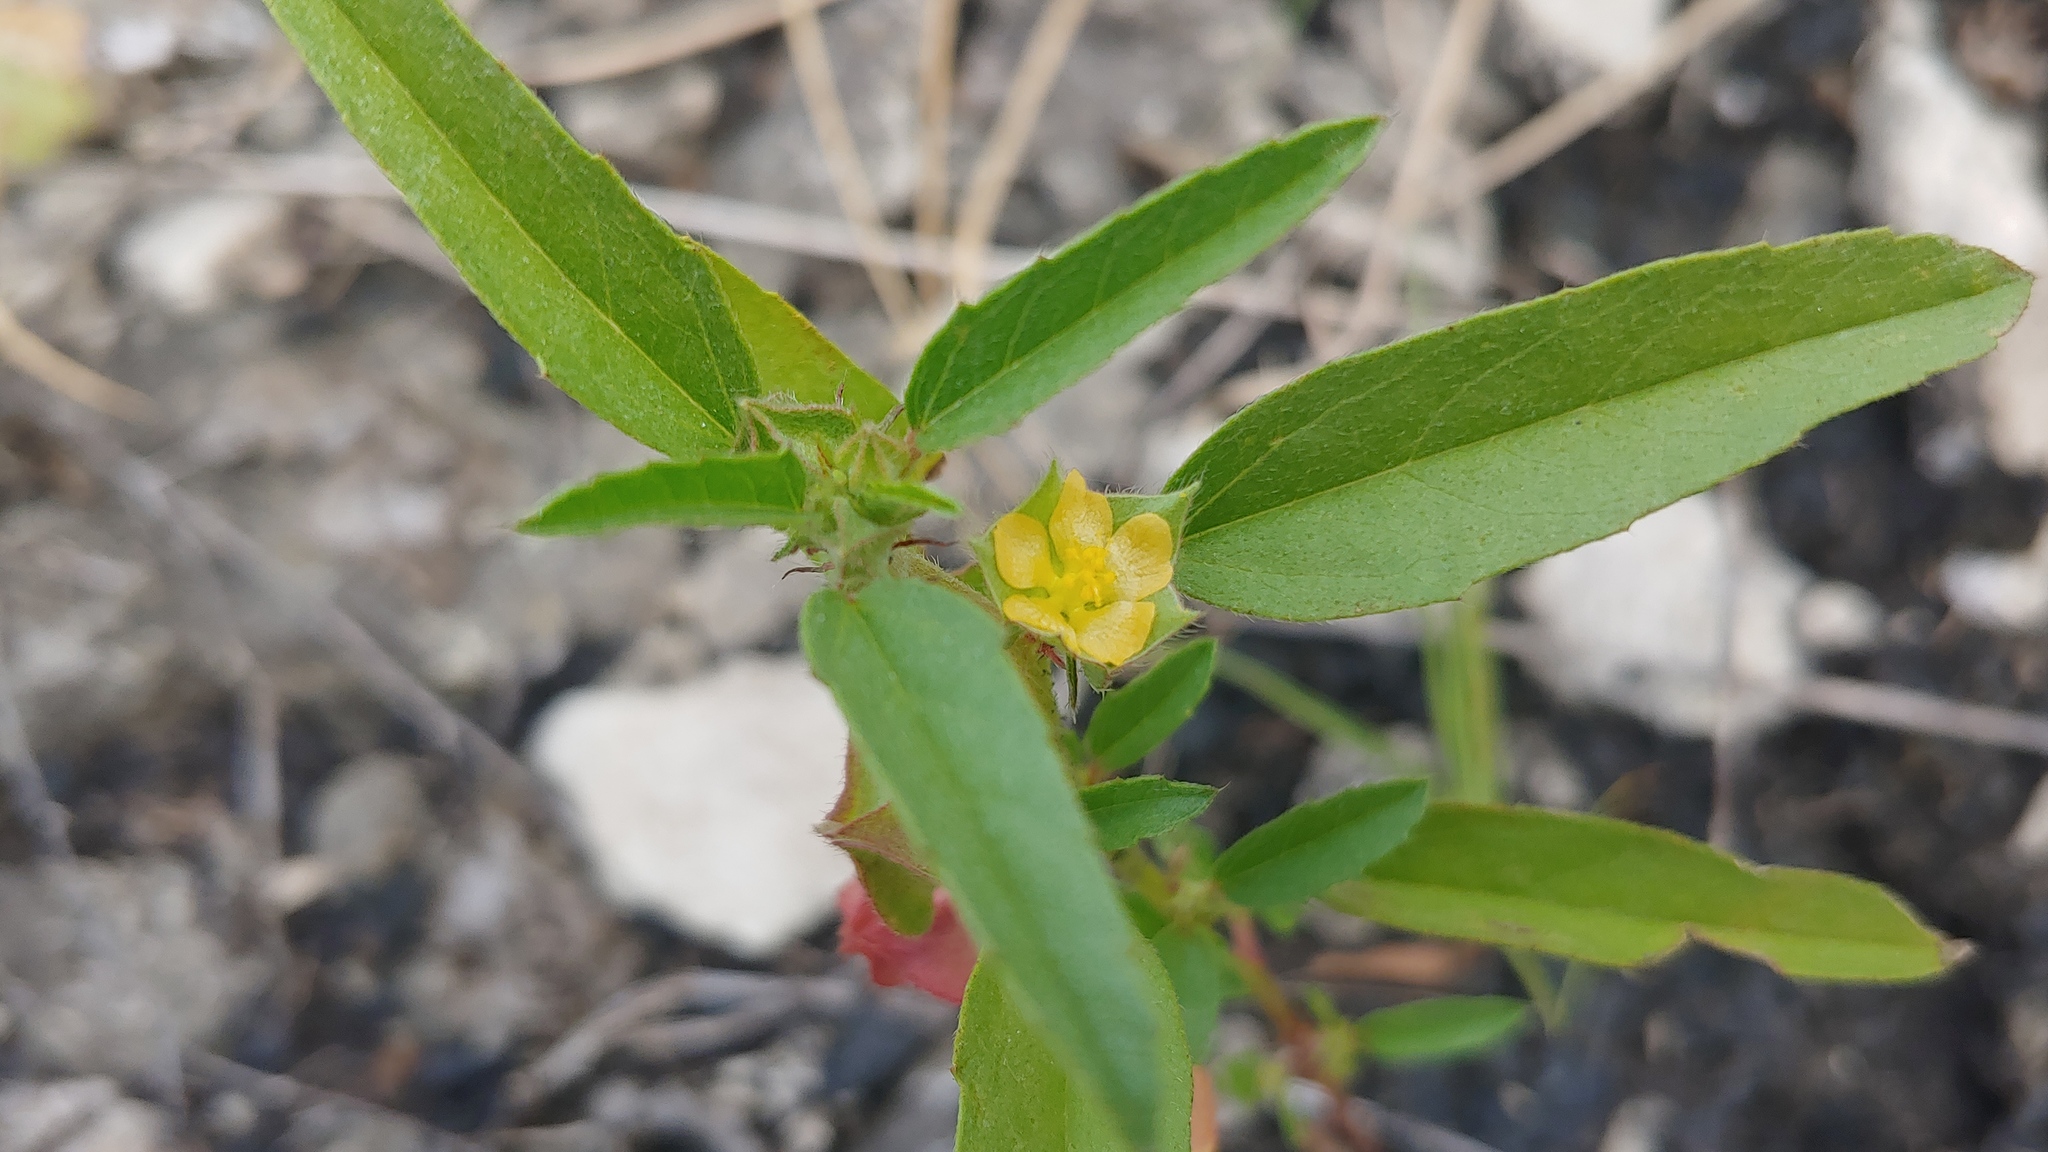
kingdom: Plantae
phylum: Tracheophyta
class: Magnoliopsida
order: Malvales
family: Malvaceae
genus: Malvastrum
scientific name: Malvastrum hispidum
